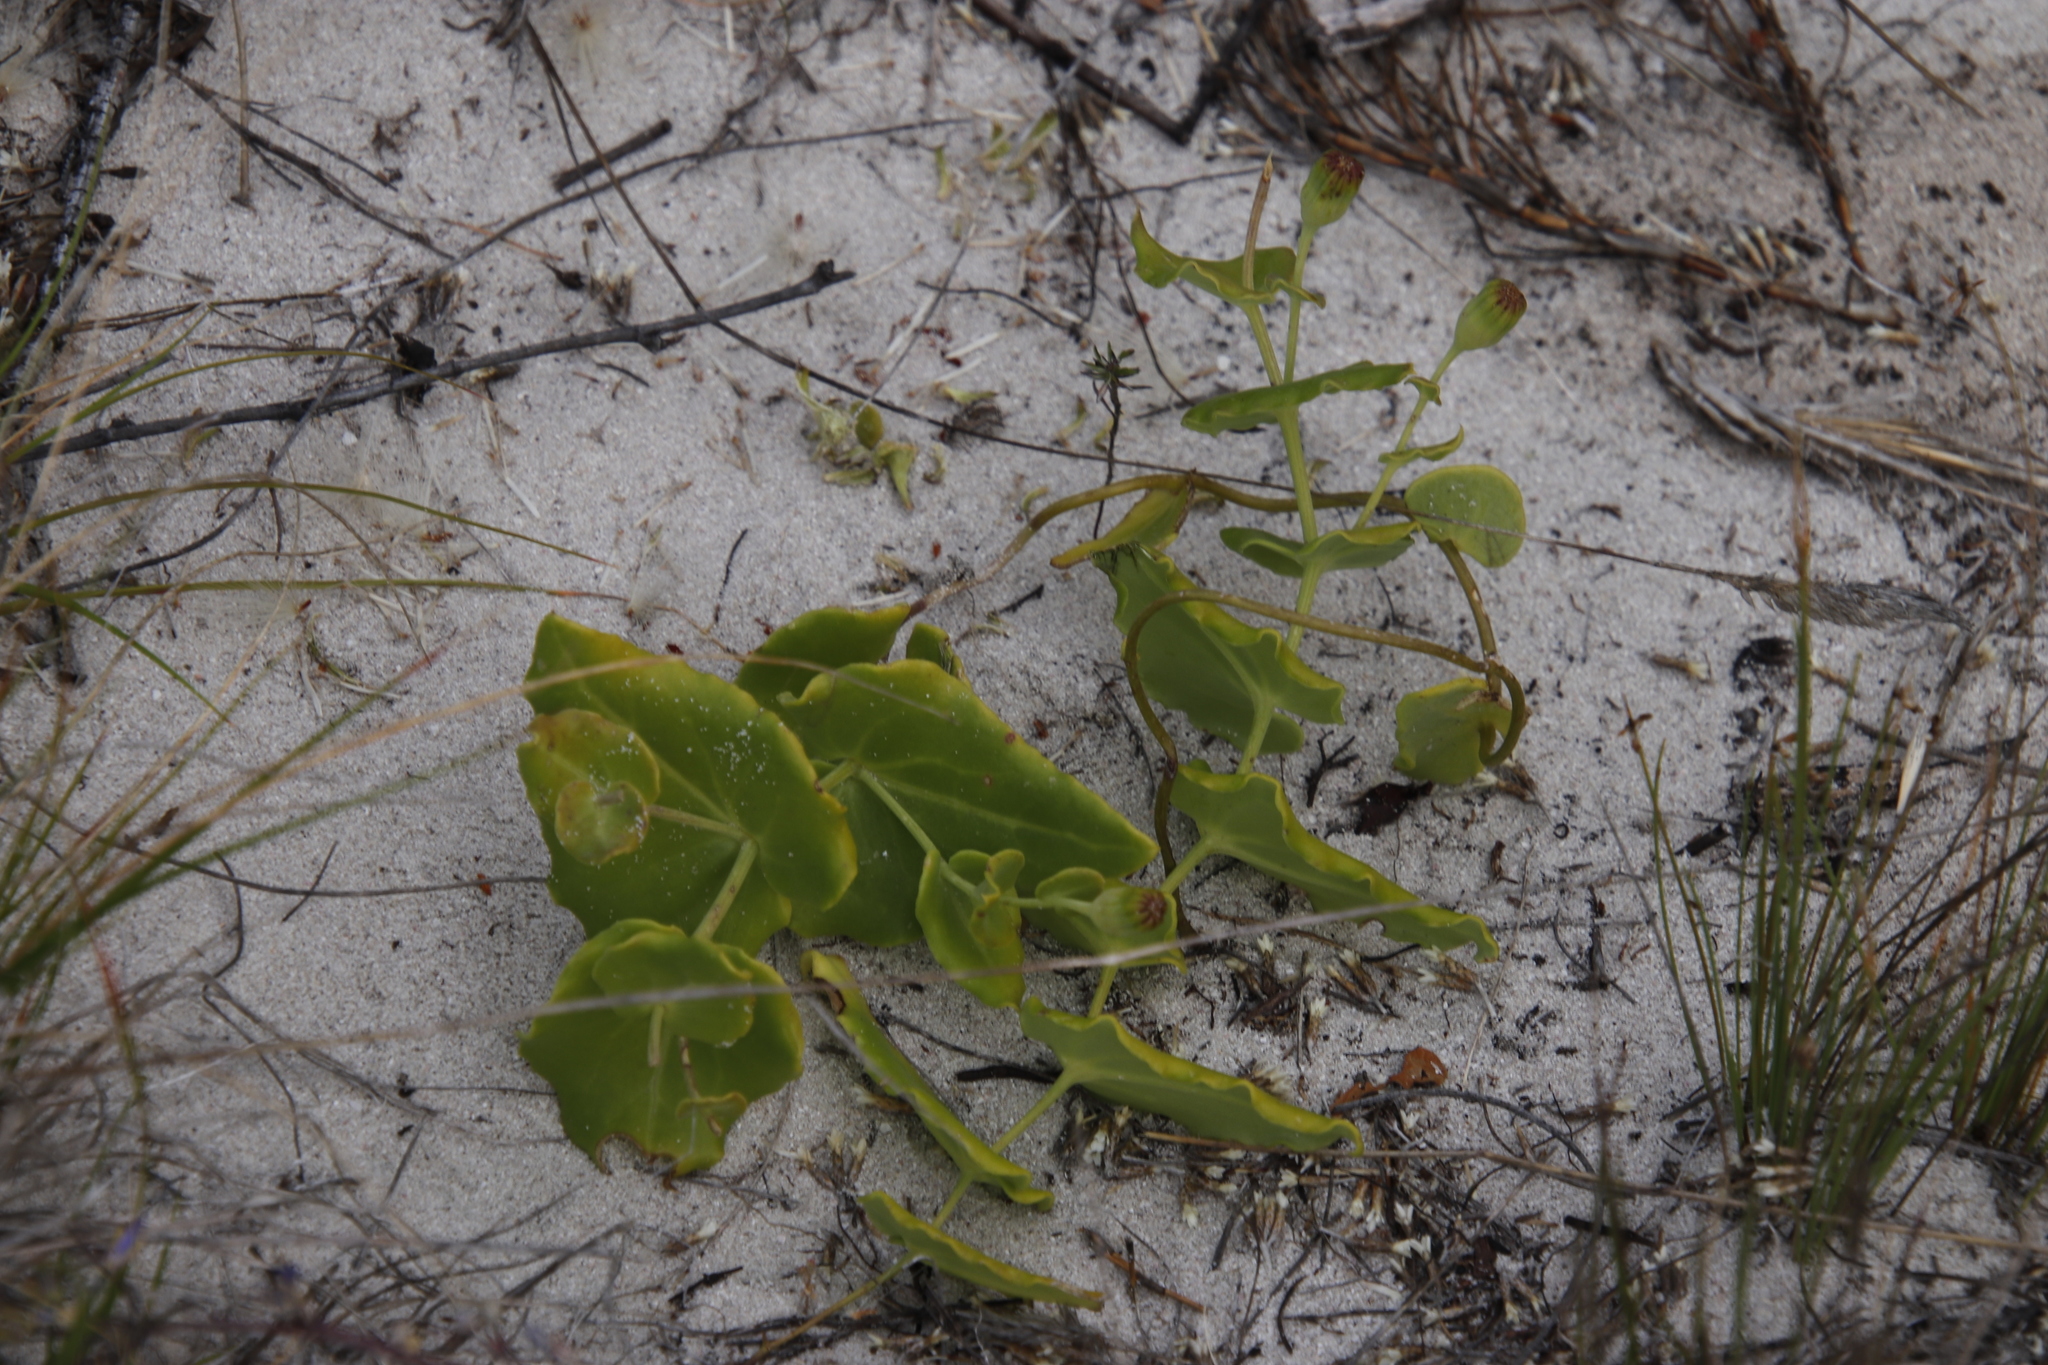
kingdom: Plantae
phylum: Tracheophyta
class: Magnoliopsida
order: Asterales
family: Asteraceae
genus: Othonna
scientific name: Othonna undulosa
